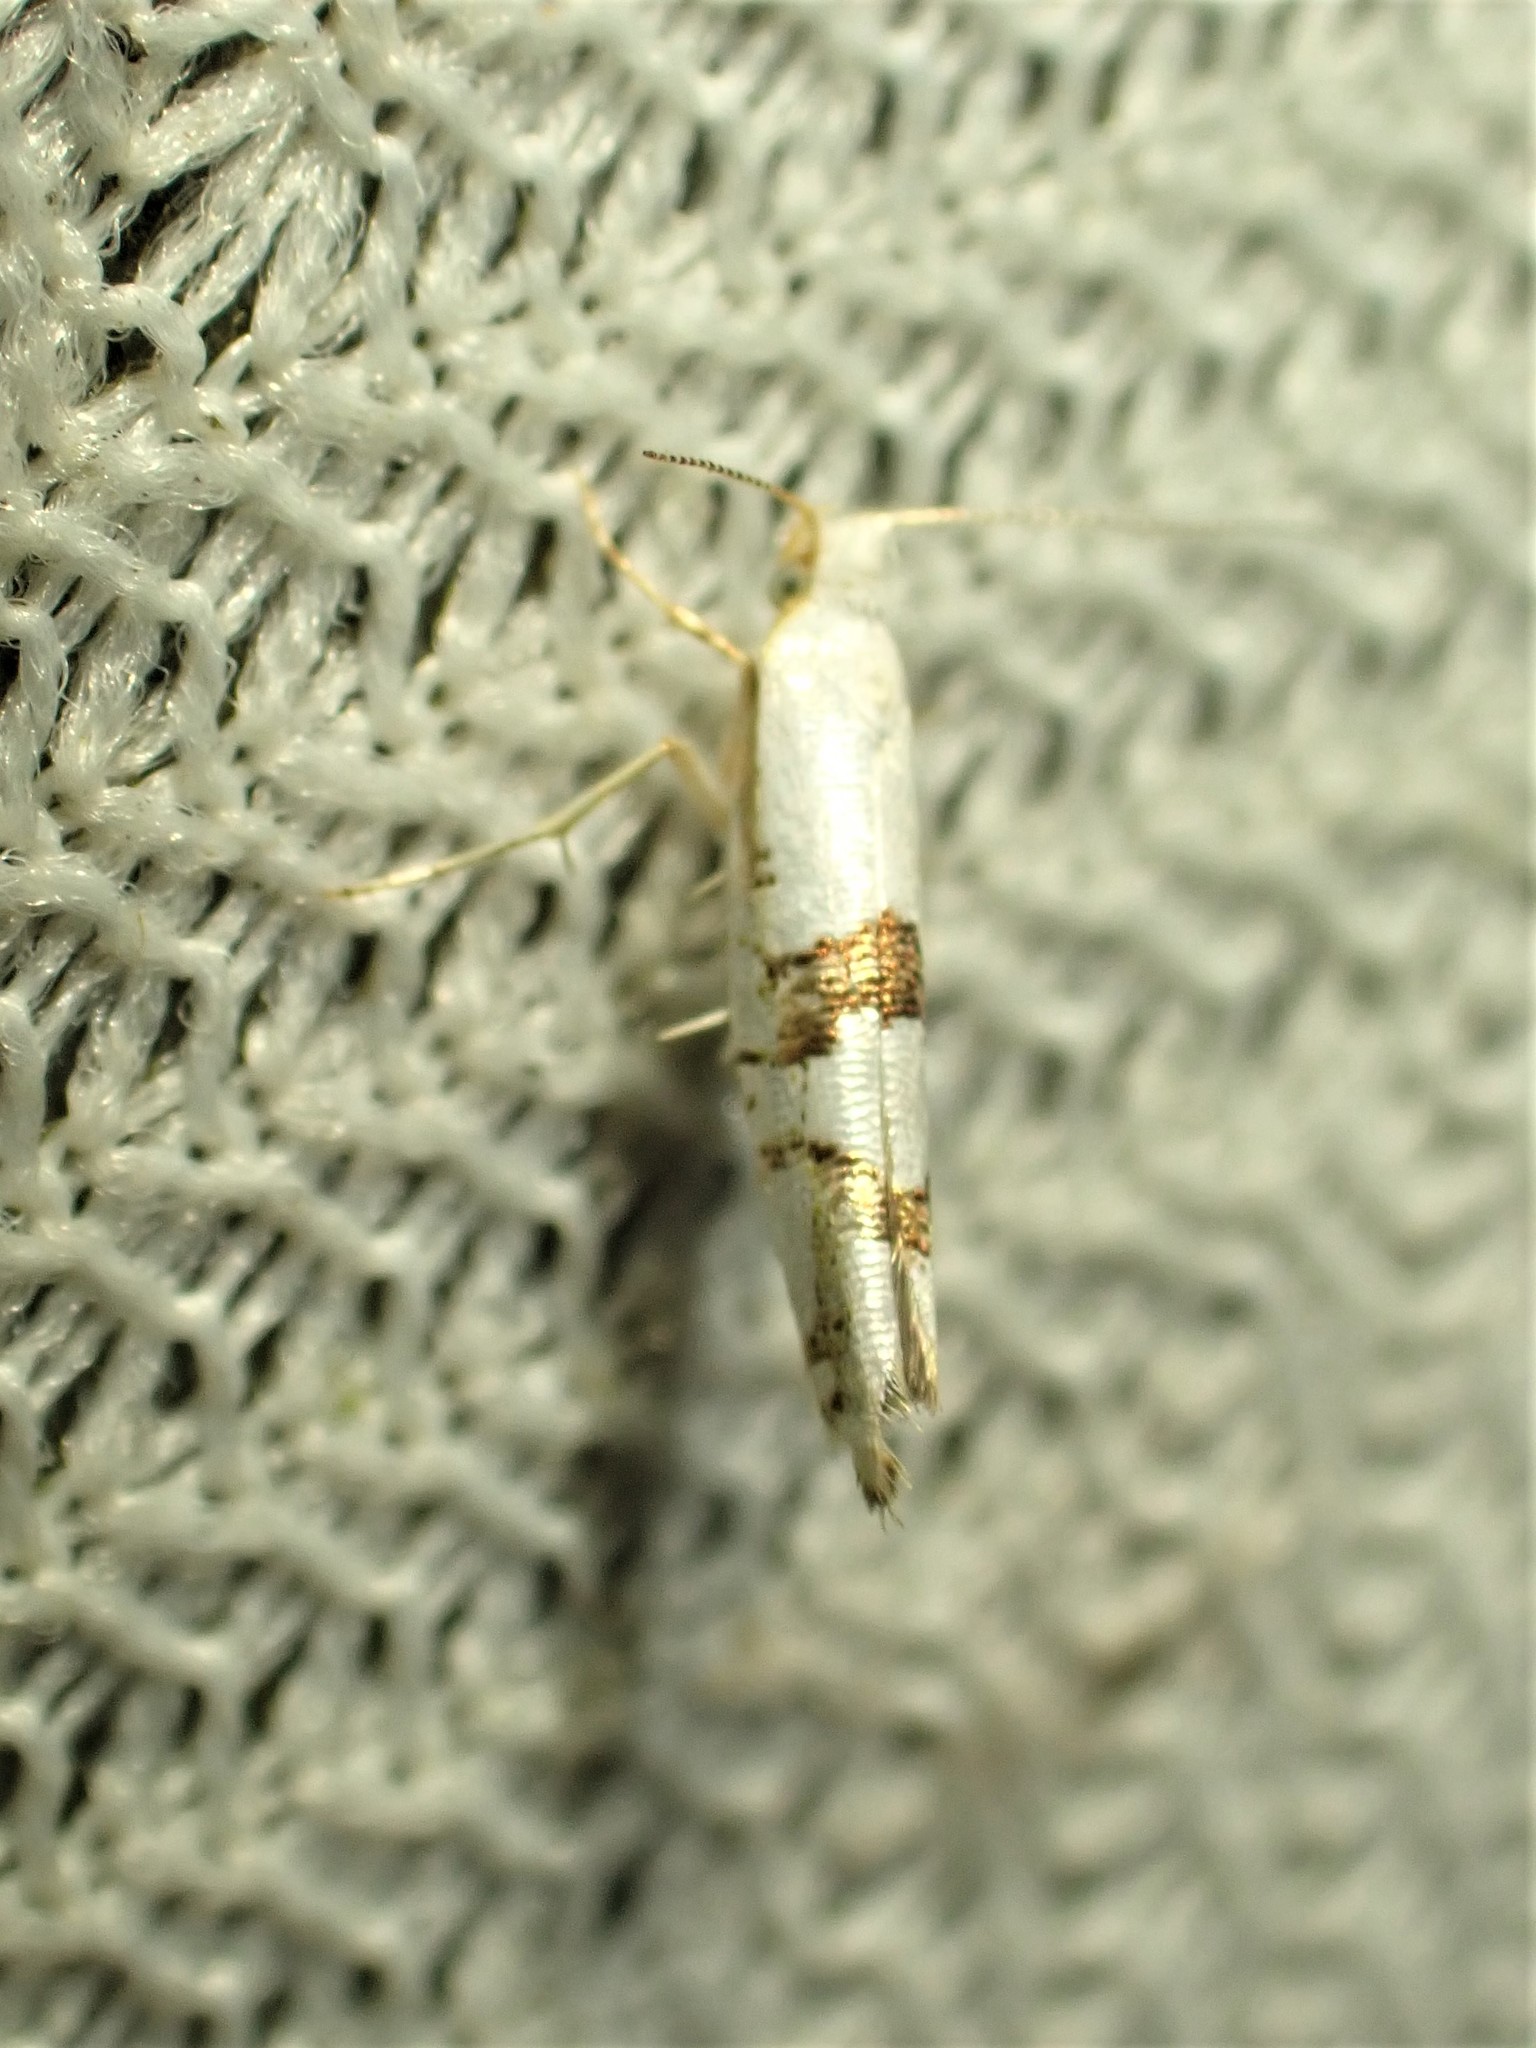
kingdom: Animalia
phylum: Arthropoda
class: Insecta
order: Lepidoptera
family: Argyresthiidae
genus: Argyresthia
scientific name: Argyresthia oreasella
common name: Cherry shoot borer moth
